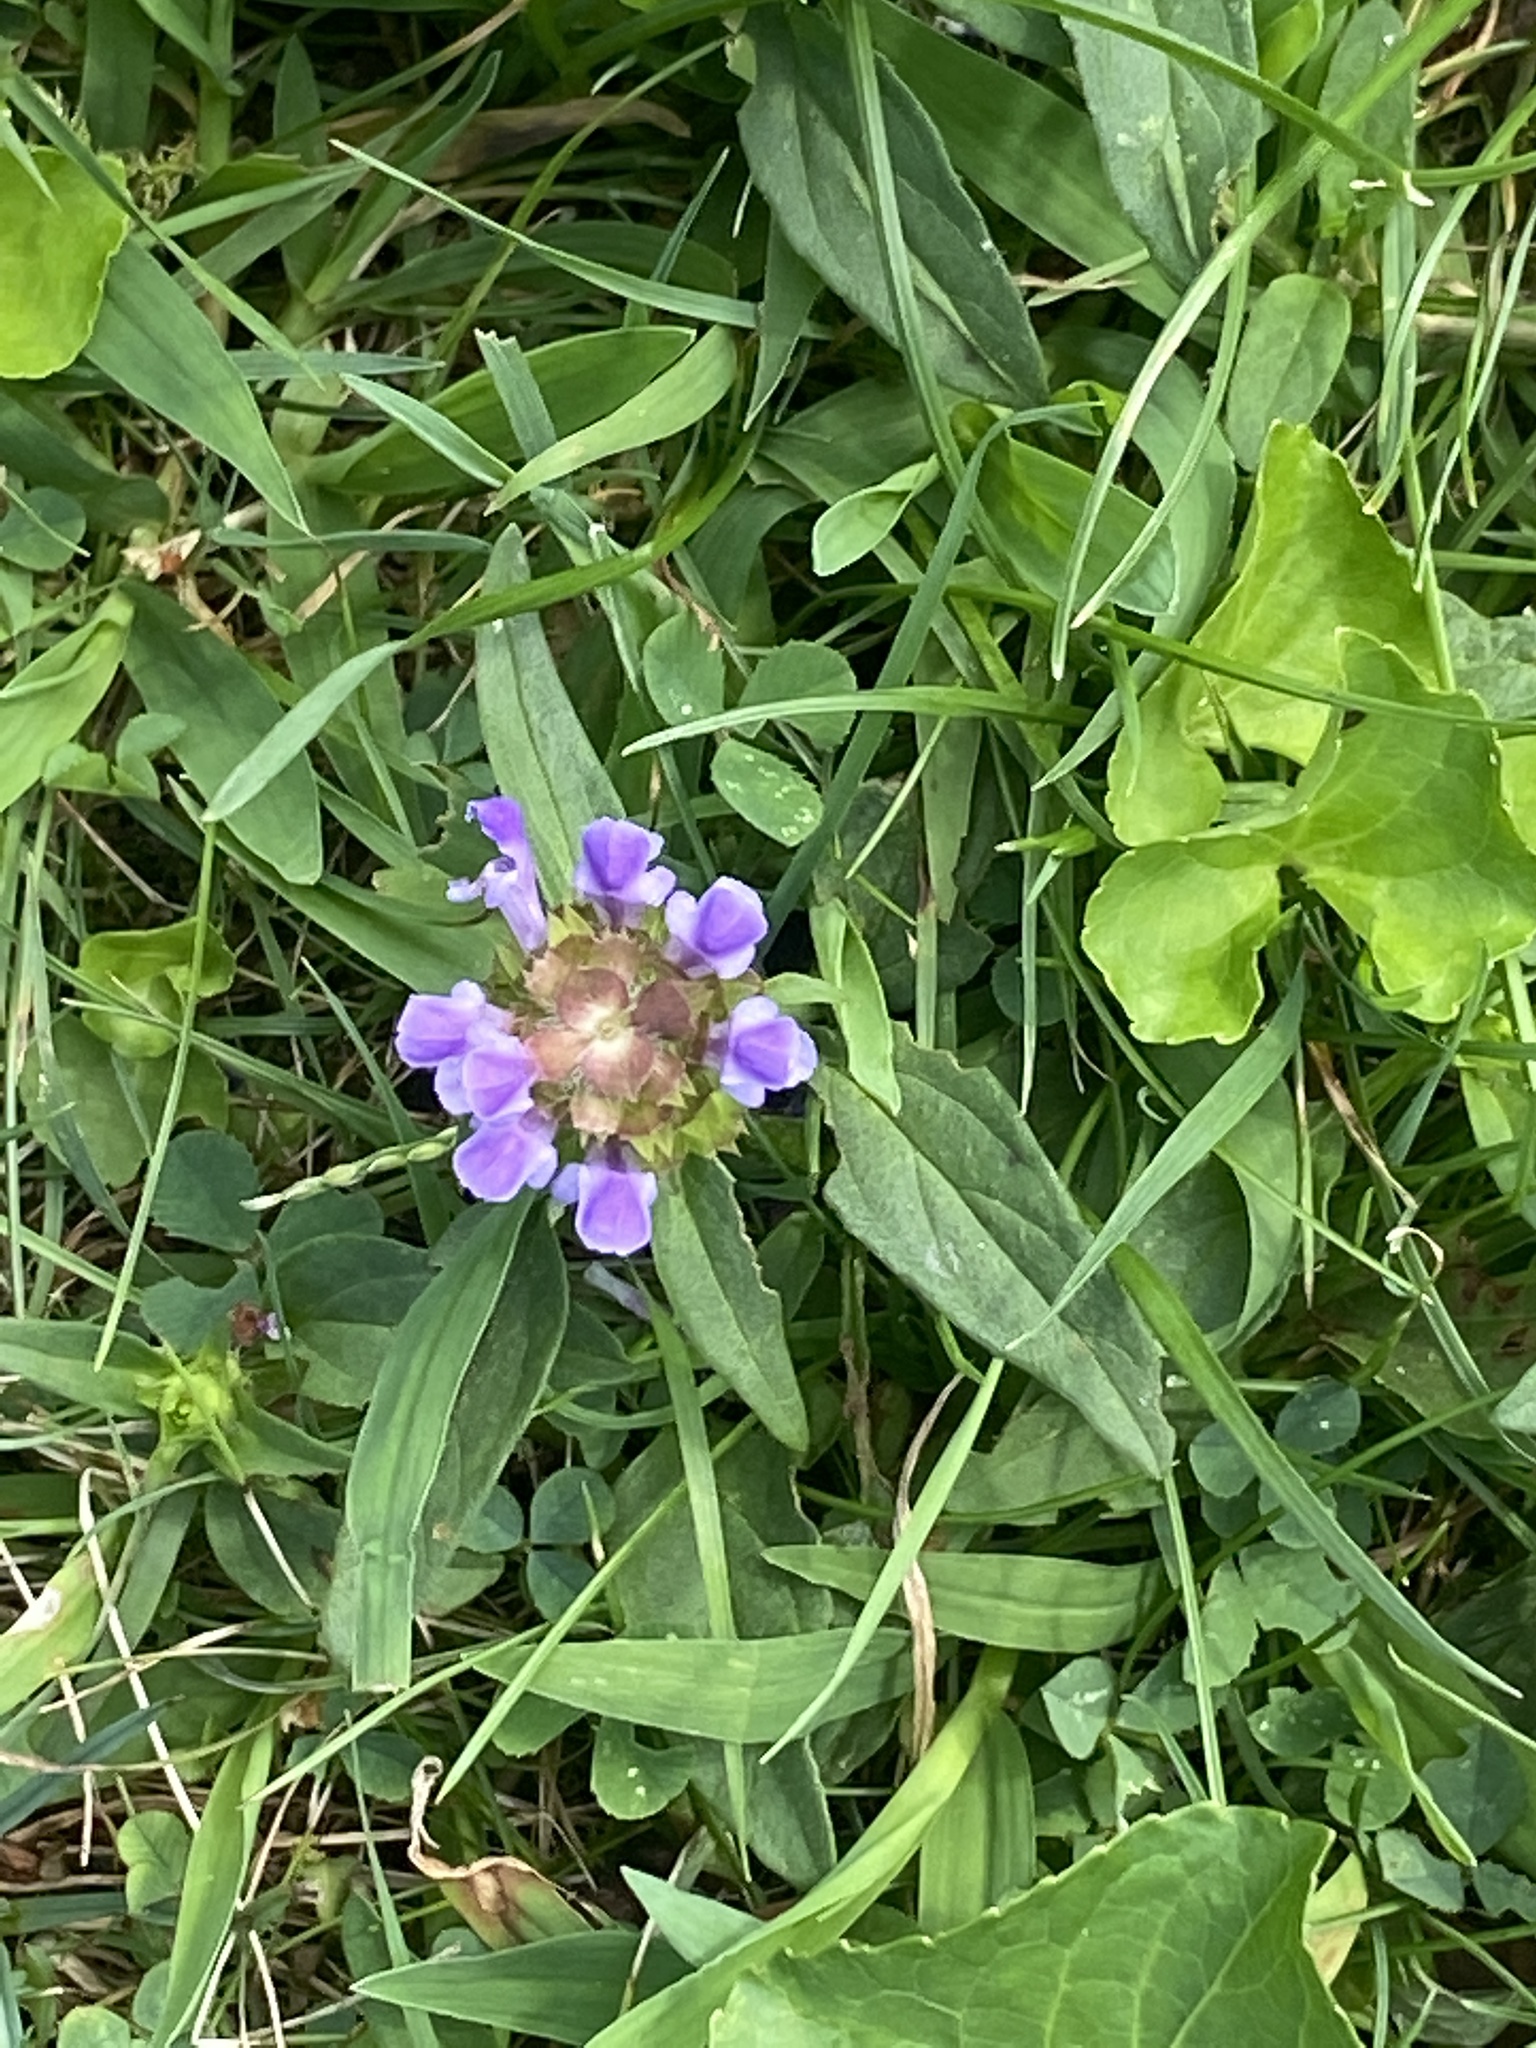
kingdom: Plantae
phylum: Tracheophyta
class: Magnoliopsida
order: Lamiales
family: Lamiaceae
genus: Prunella
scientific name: Prunella vulgaris
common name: Heal-all
